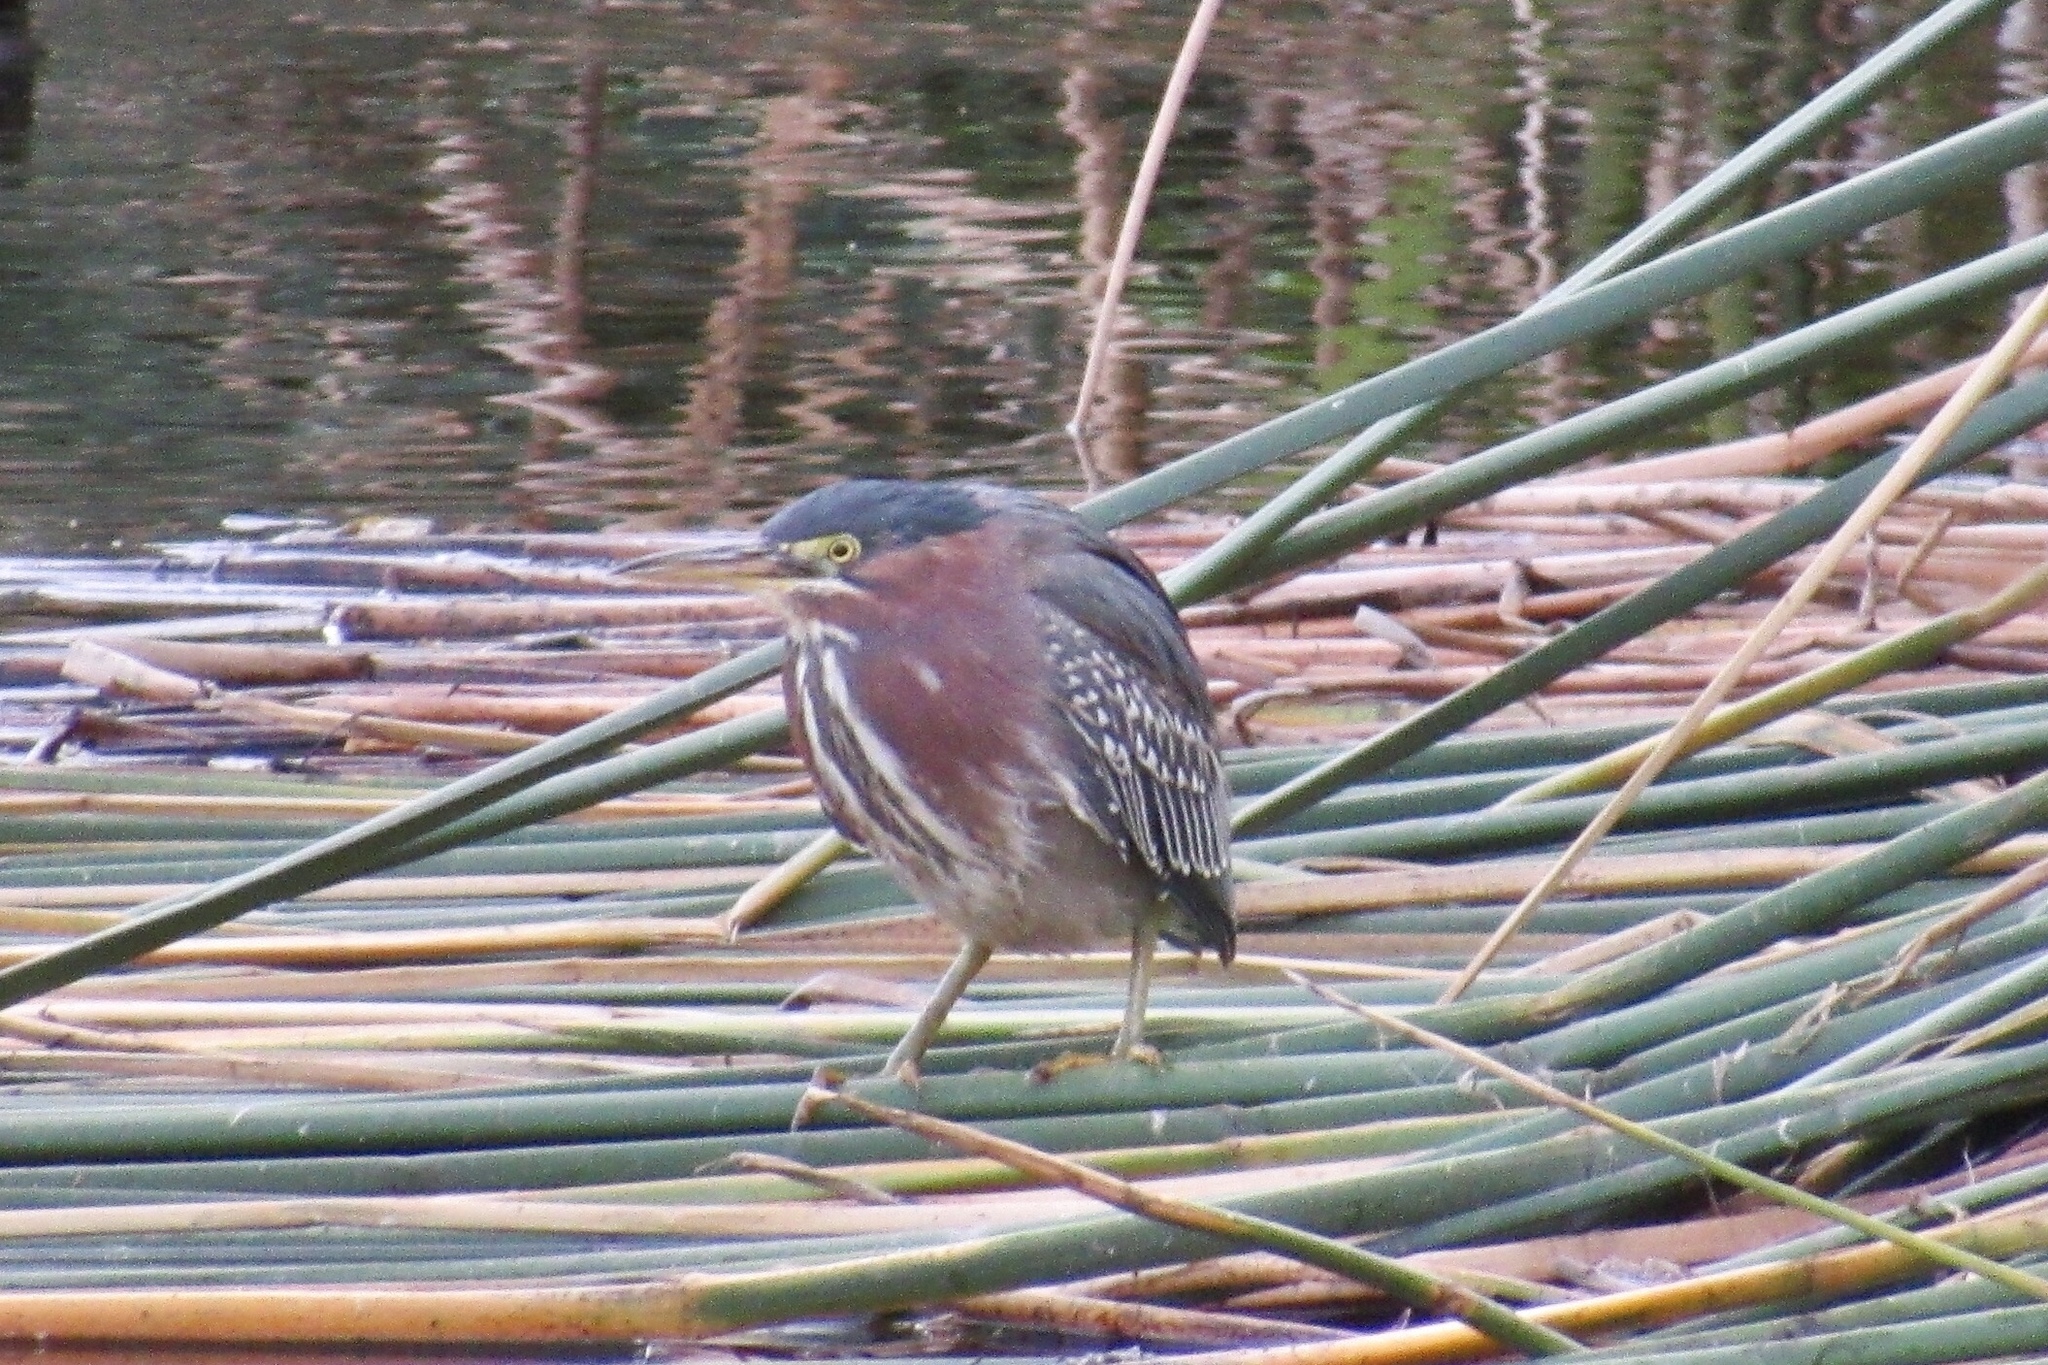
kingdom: Animalia
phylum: Chordata
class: Aves
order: Pelecaniformes
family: Ardeidae
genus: Butorides
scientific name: Butorides virescens
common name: Green heron
